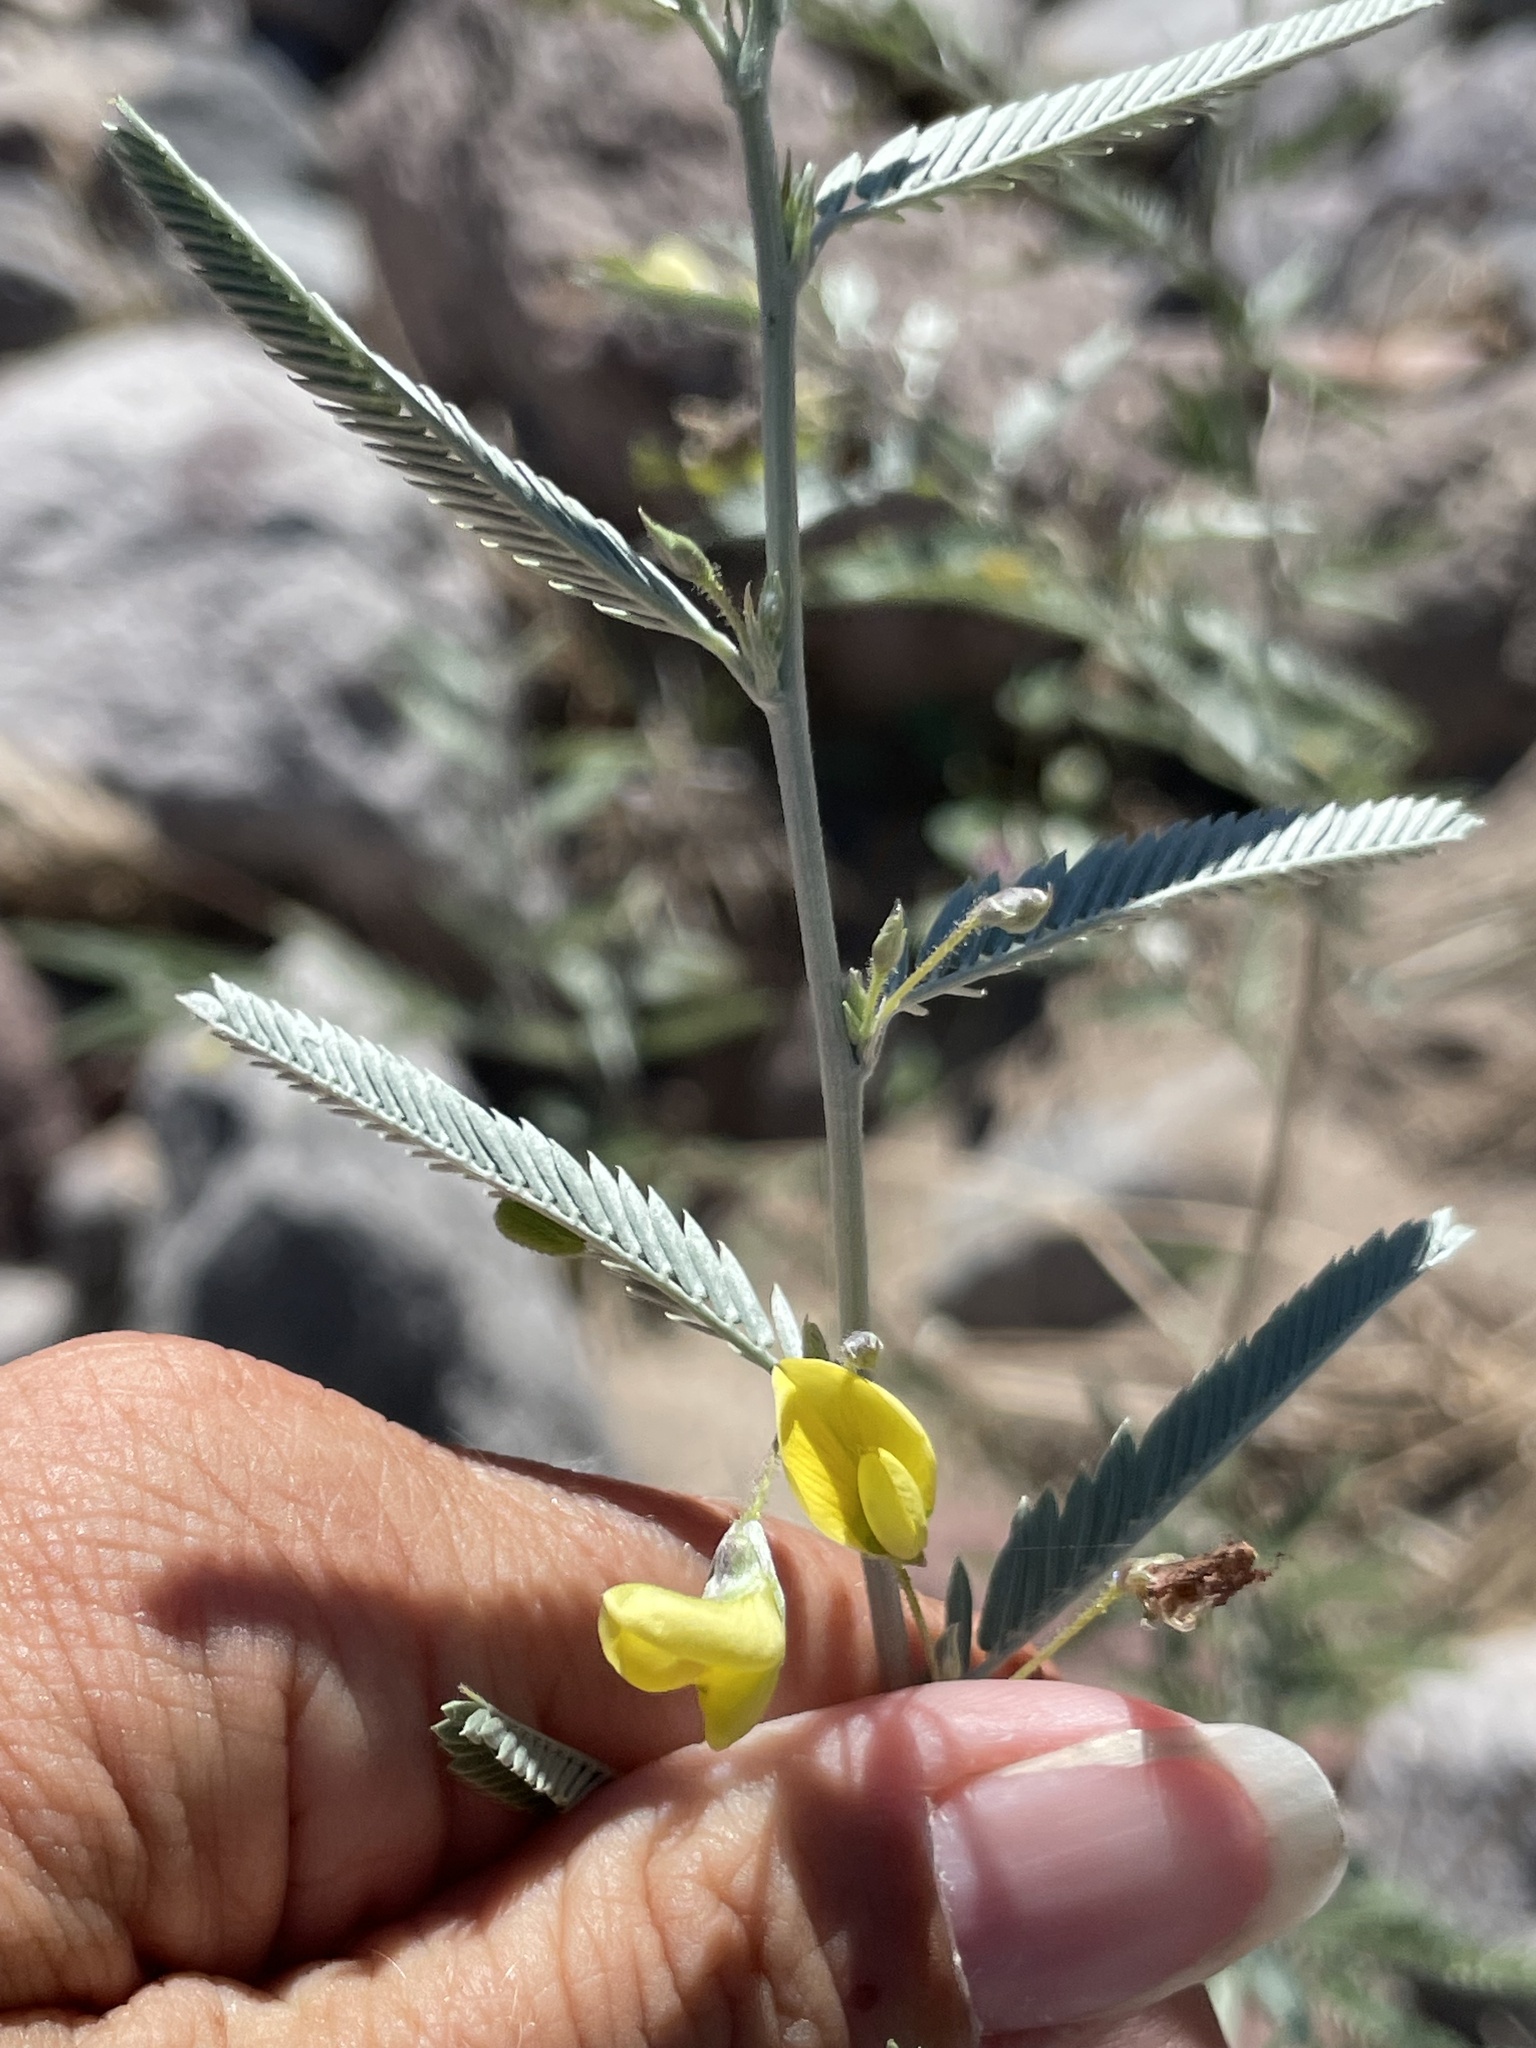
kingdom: Plantae
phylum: Tracheophyta
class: Magnoliopsida
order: Fabales
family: Fabaceae
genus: Ctenodon
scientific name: Ctenodon niveus
